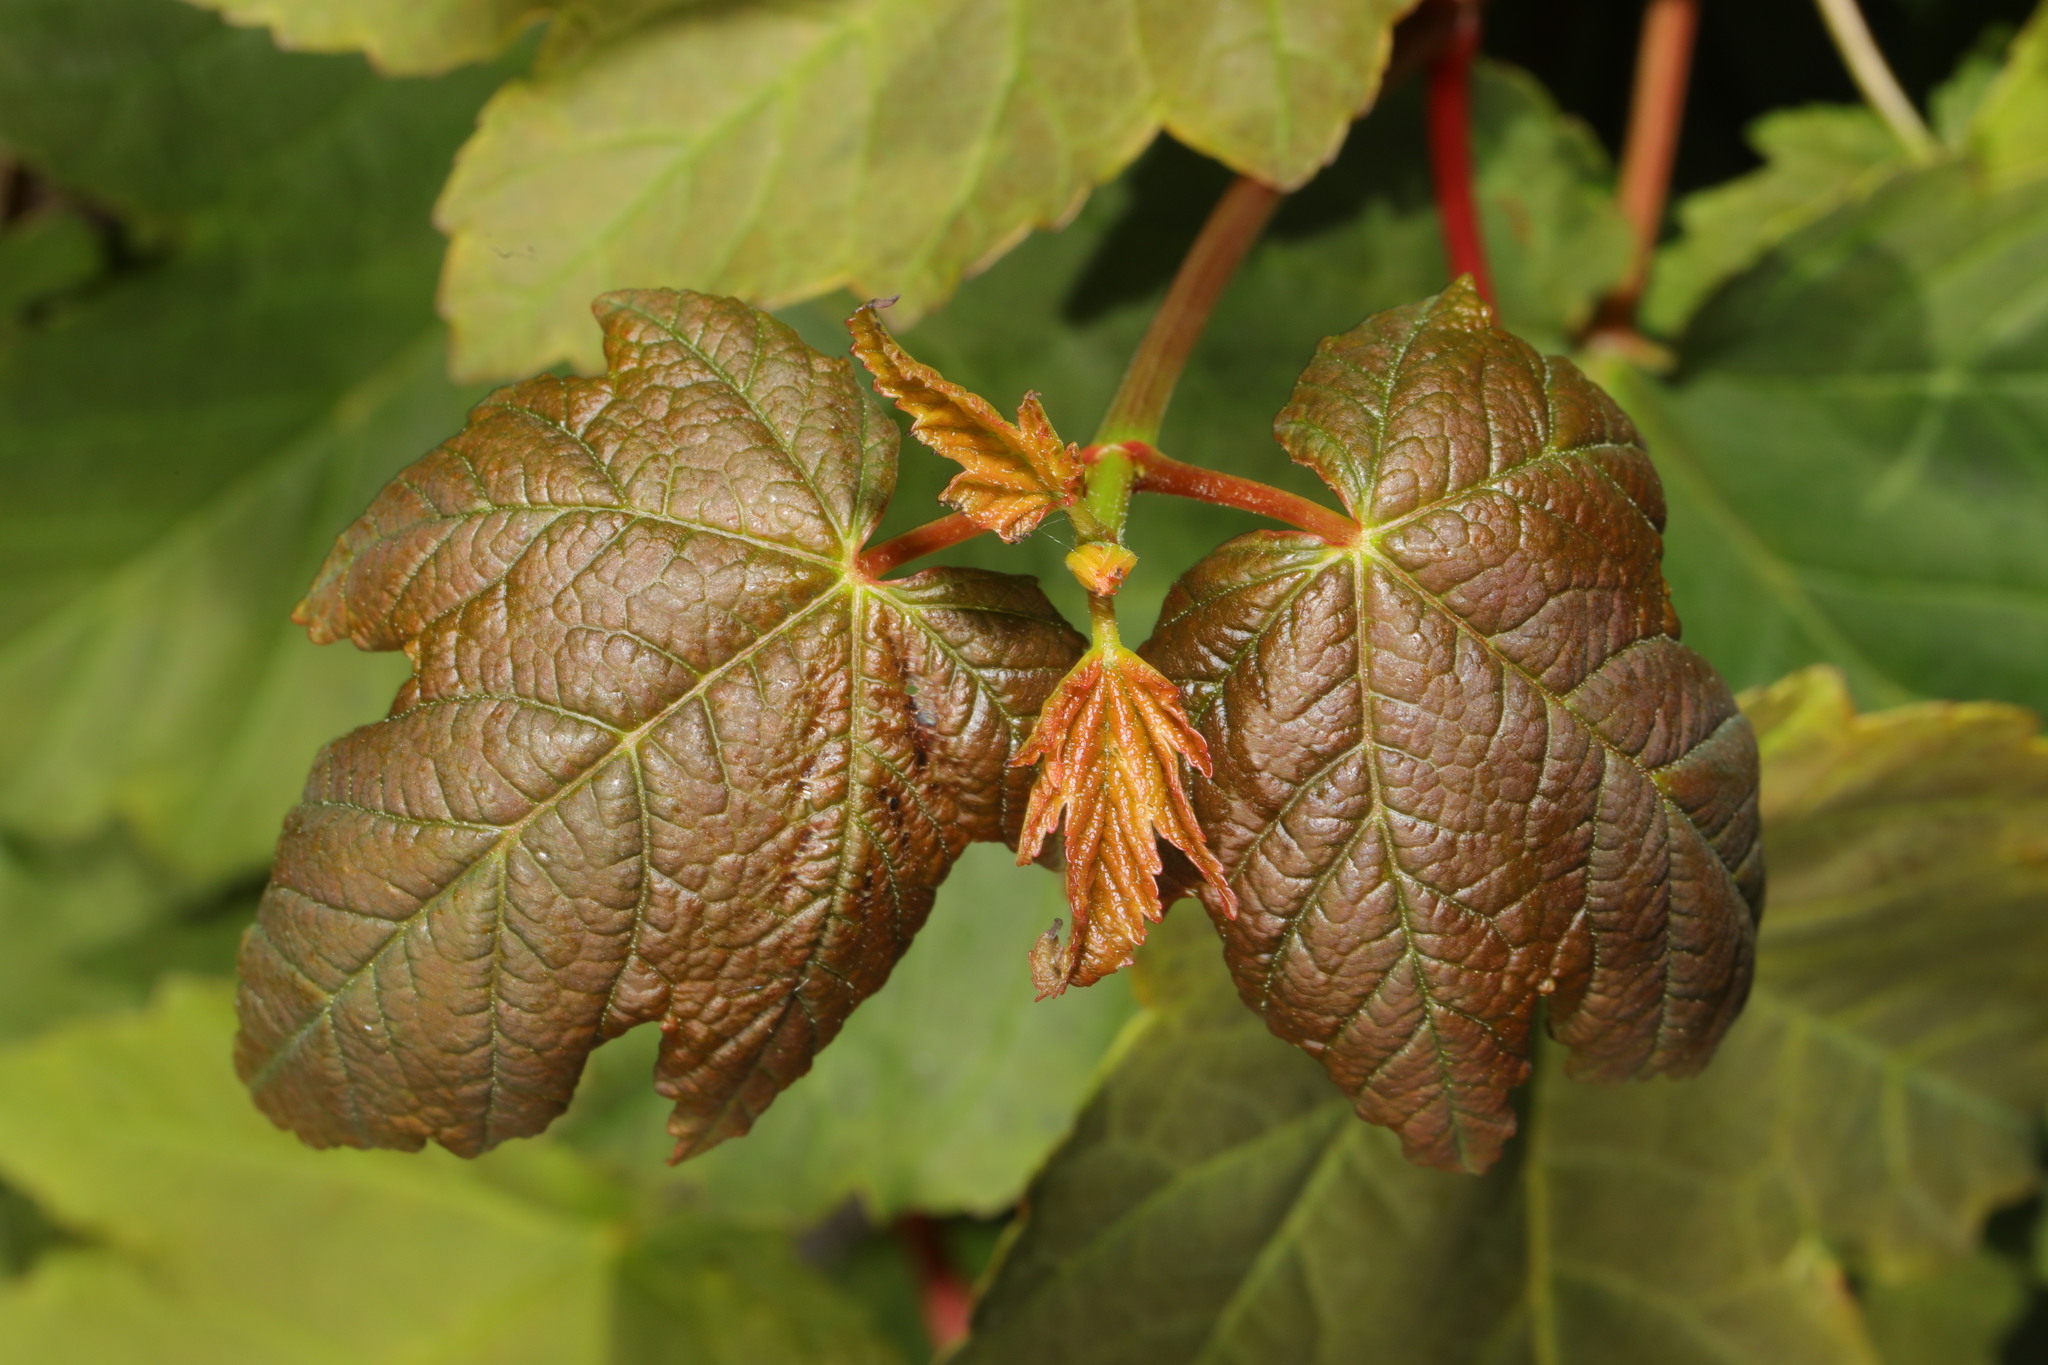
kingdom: Plantae
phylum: Tracheophyta
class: Magnoliopsida
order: Sapindales
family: Sapindaceae
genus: Acer
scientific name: Acer pseudoplatanus
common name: Sycamore
